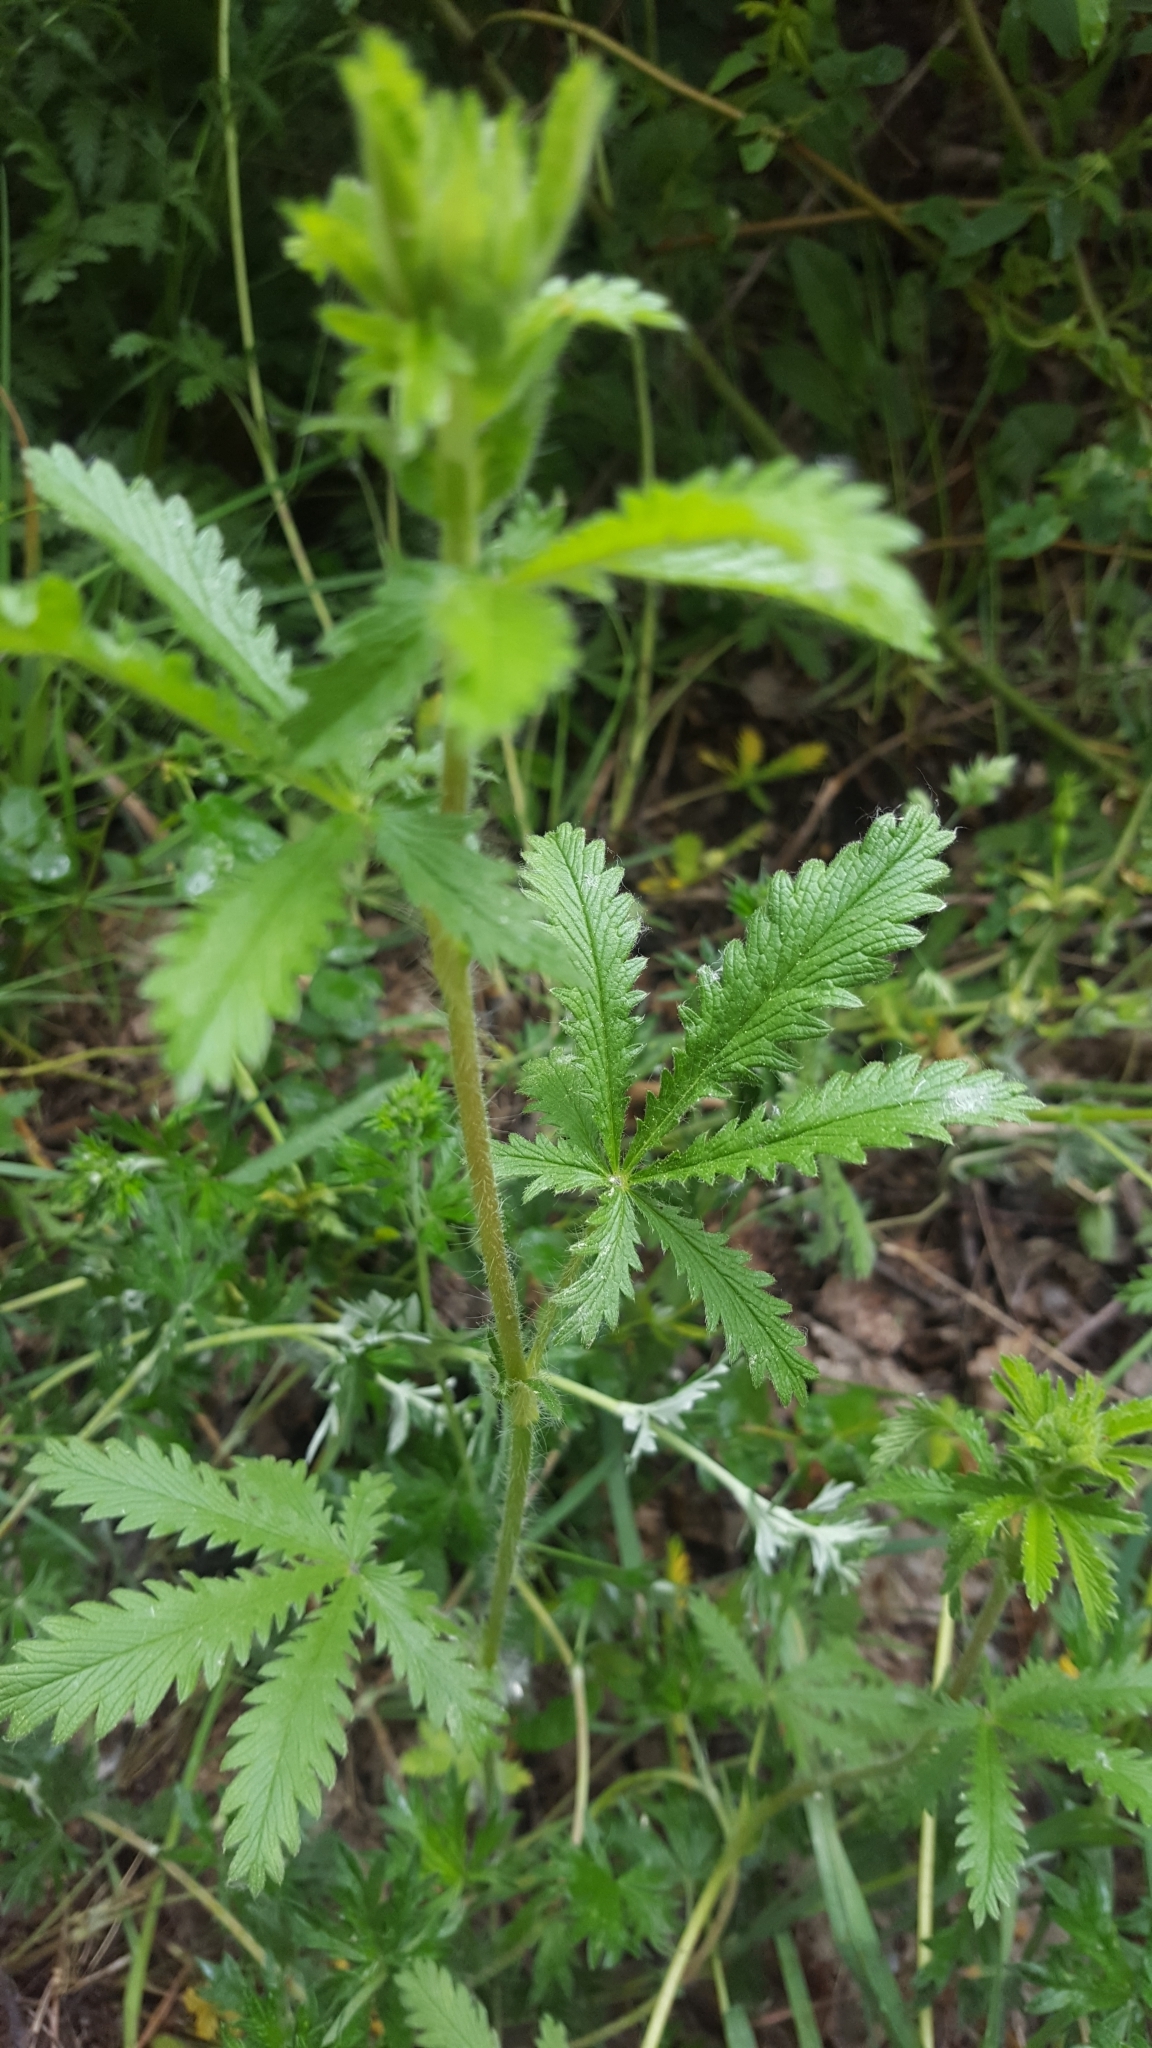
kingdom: Plantae
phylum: Tracheophyta
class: Magnoliopsida
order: Rosales
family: Rosaceae
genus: Potentilla
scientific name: Potentilla recta
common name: Sulphur cinquefoil
